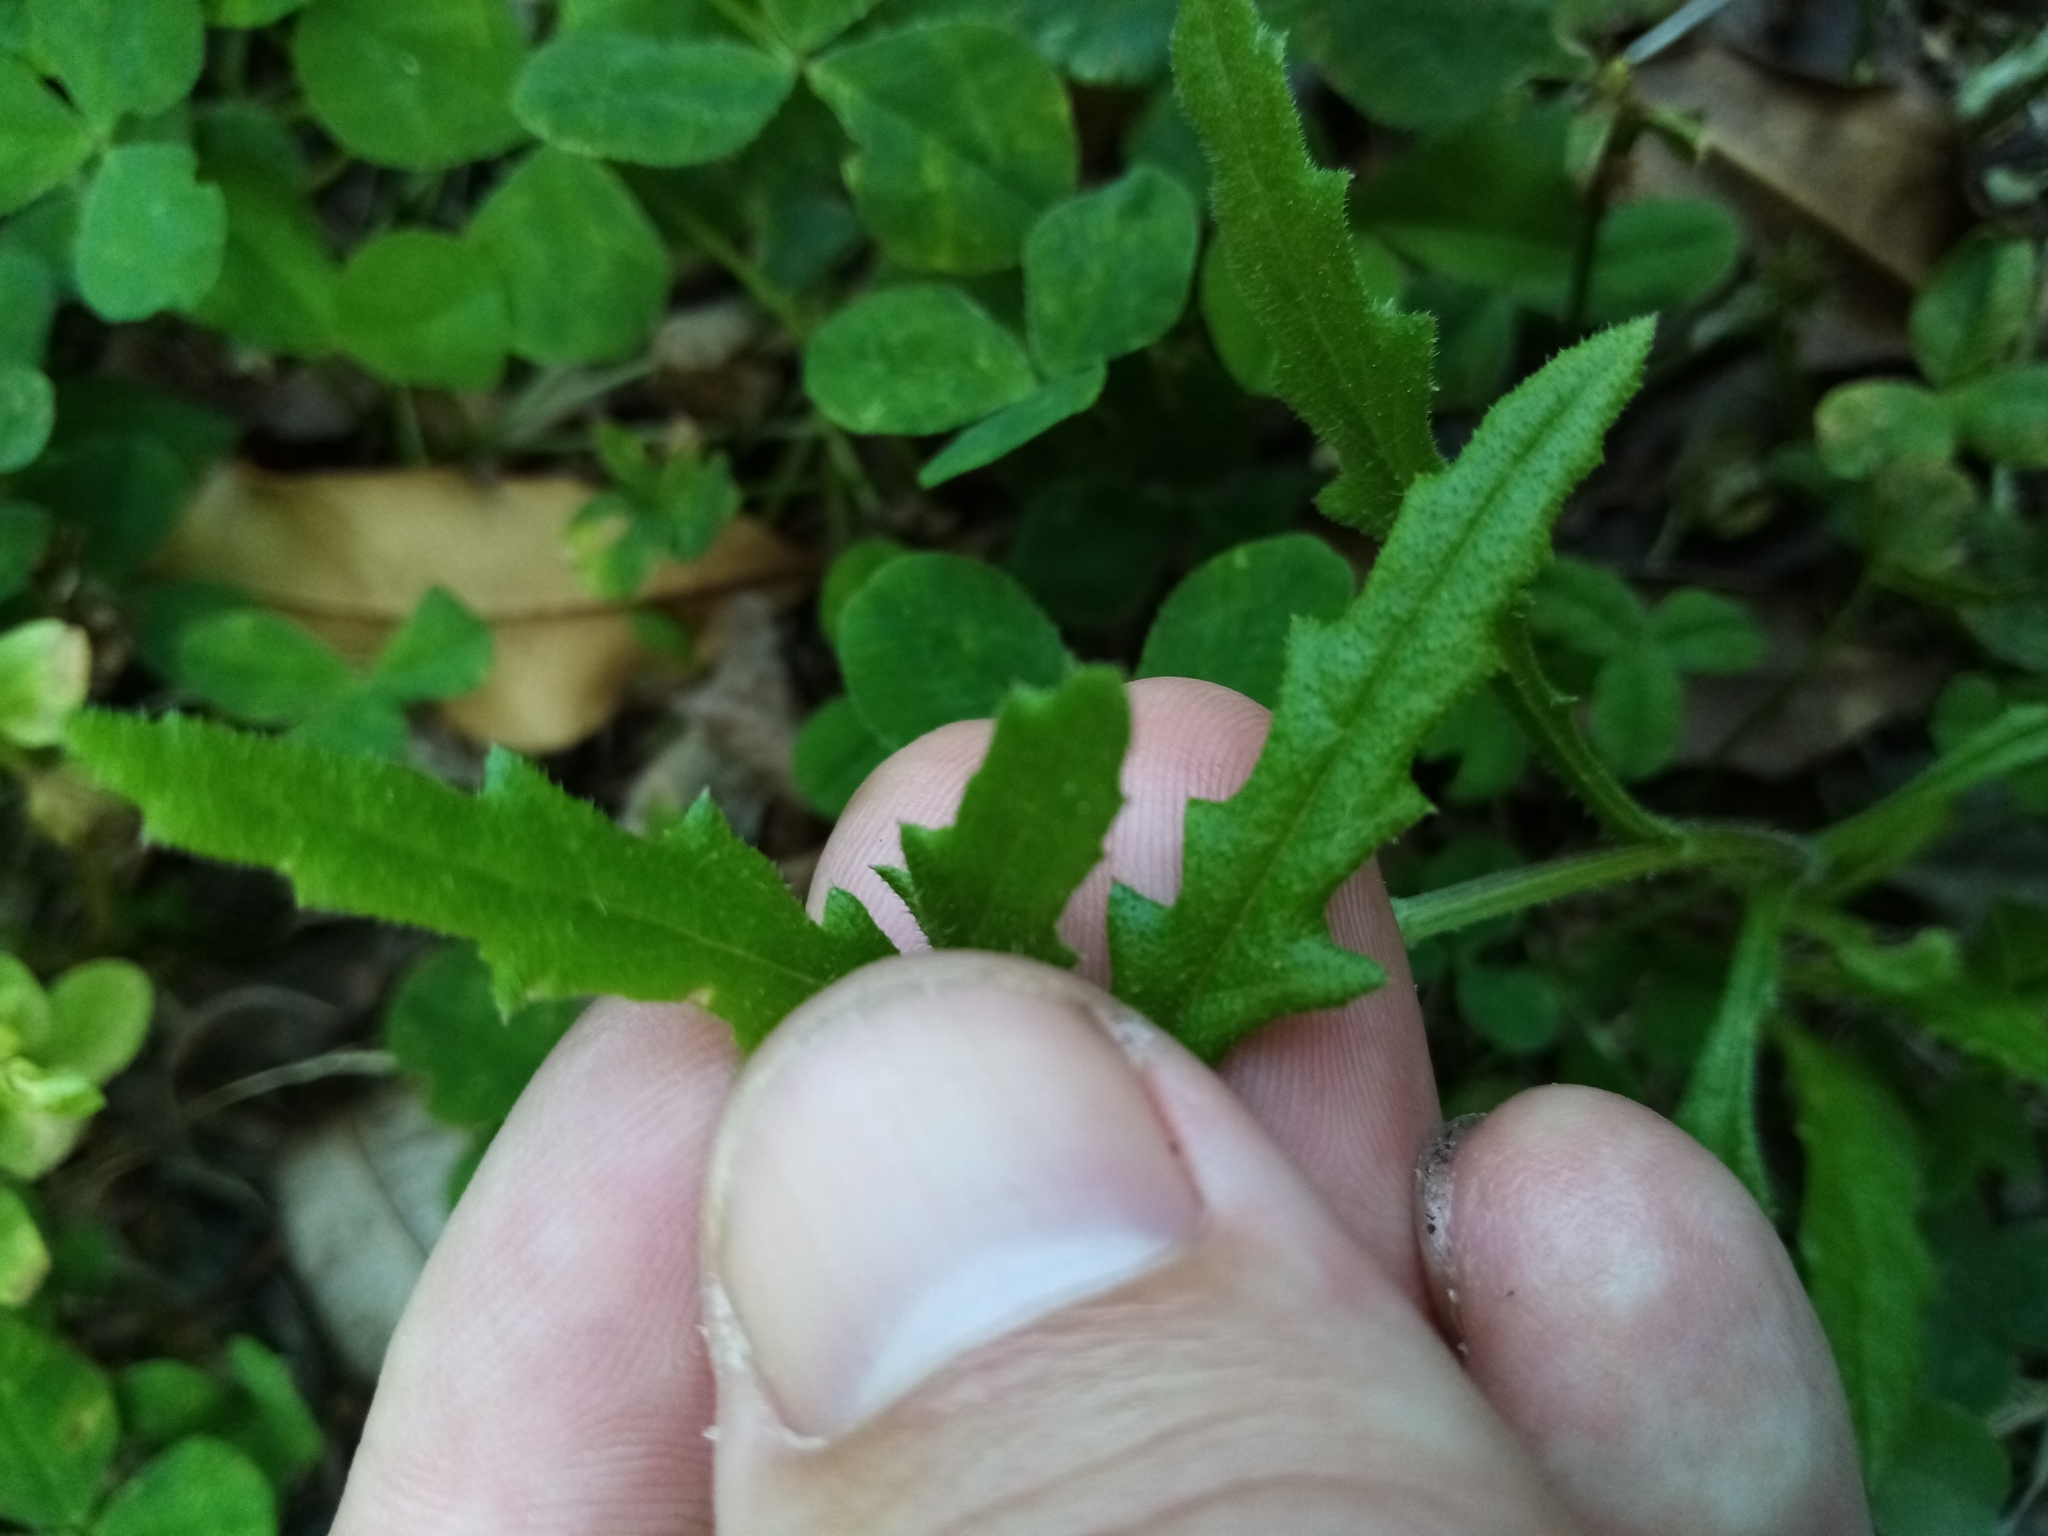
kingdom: Plantae
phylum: Tracheophyta
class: Magnoliopsida
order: Asterales
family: Asteraceae
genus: Senecio
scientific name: Senecio hispidulus
